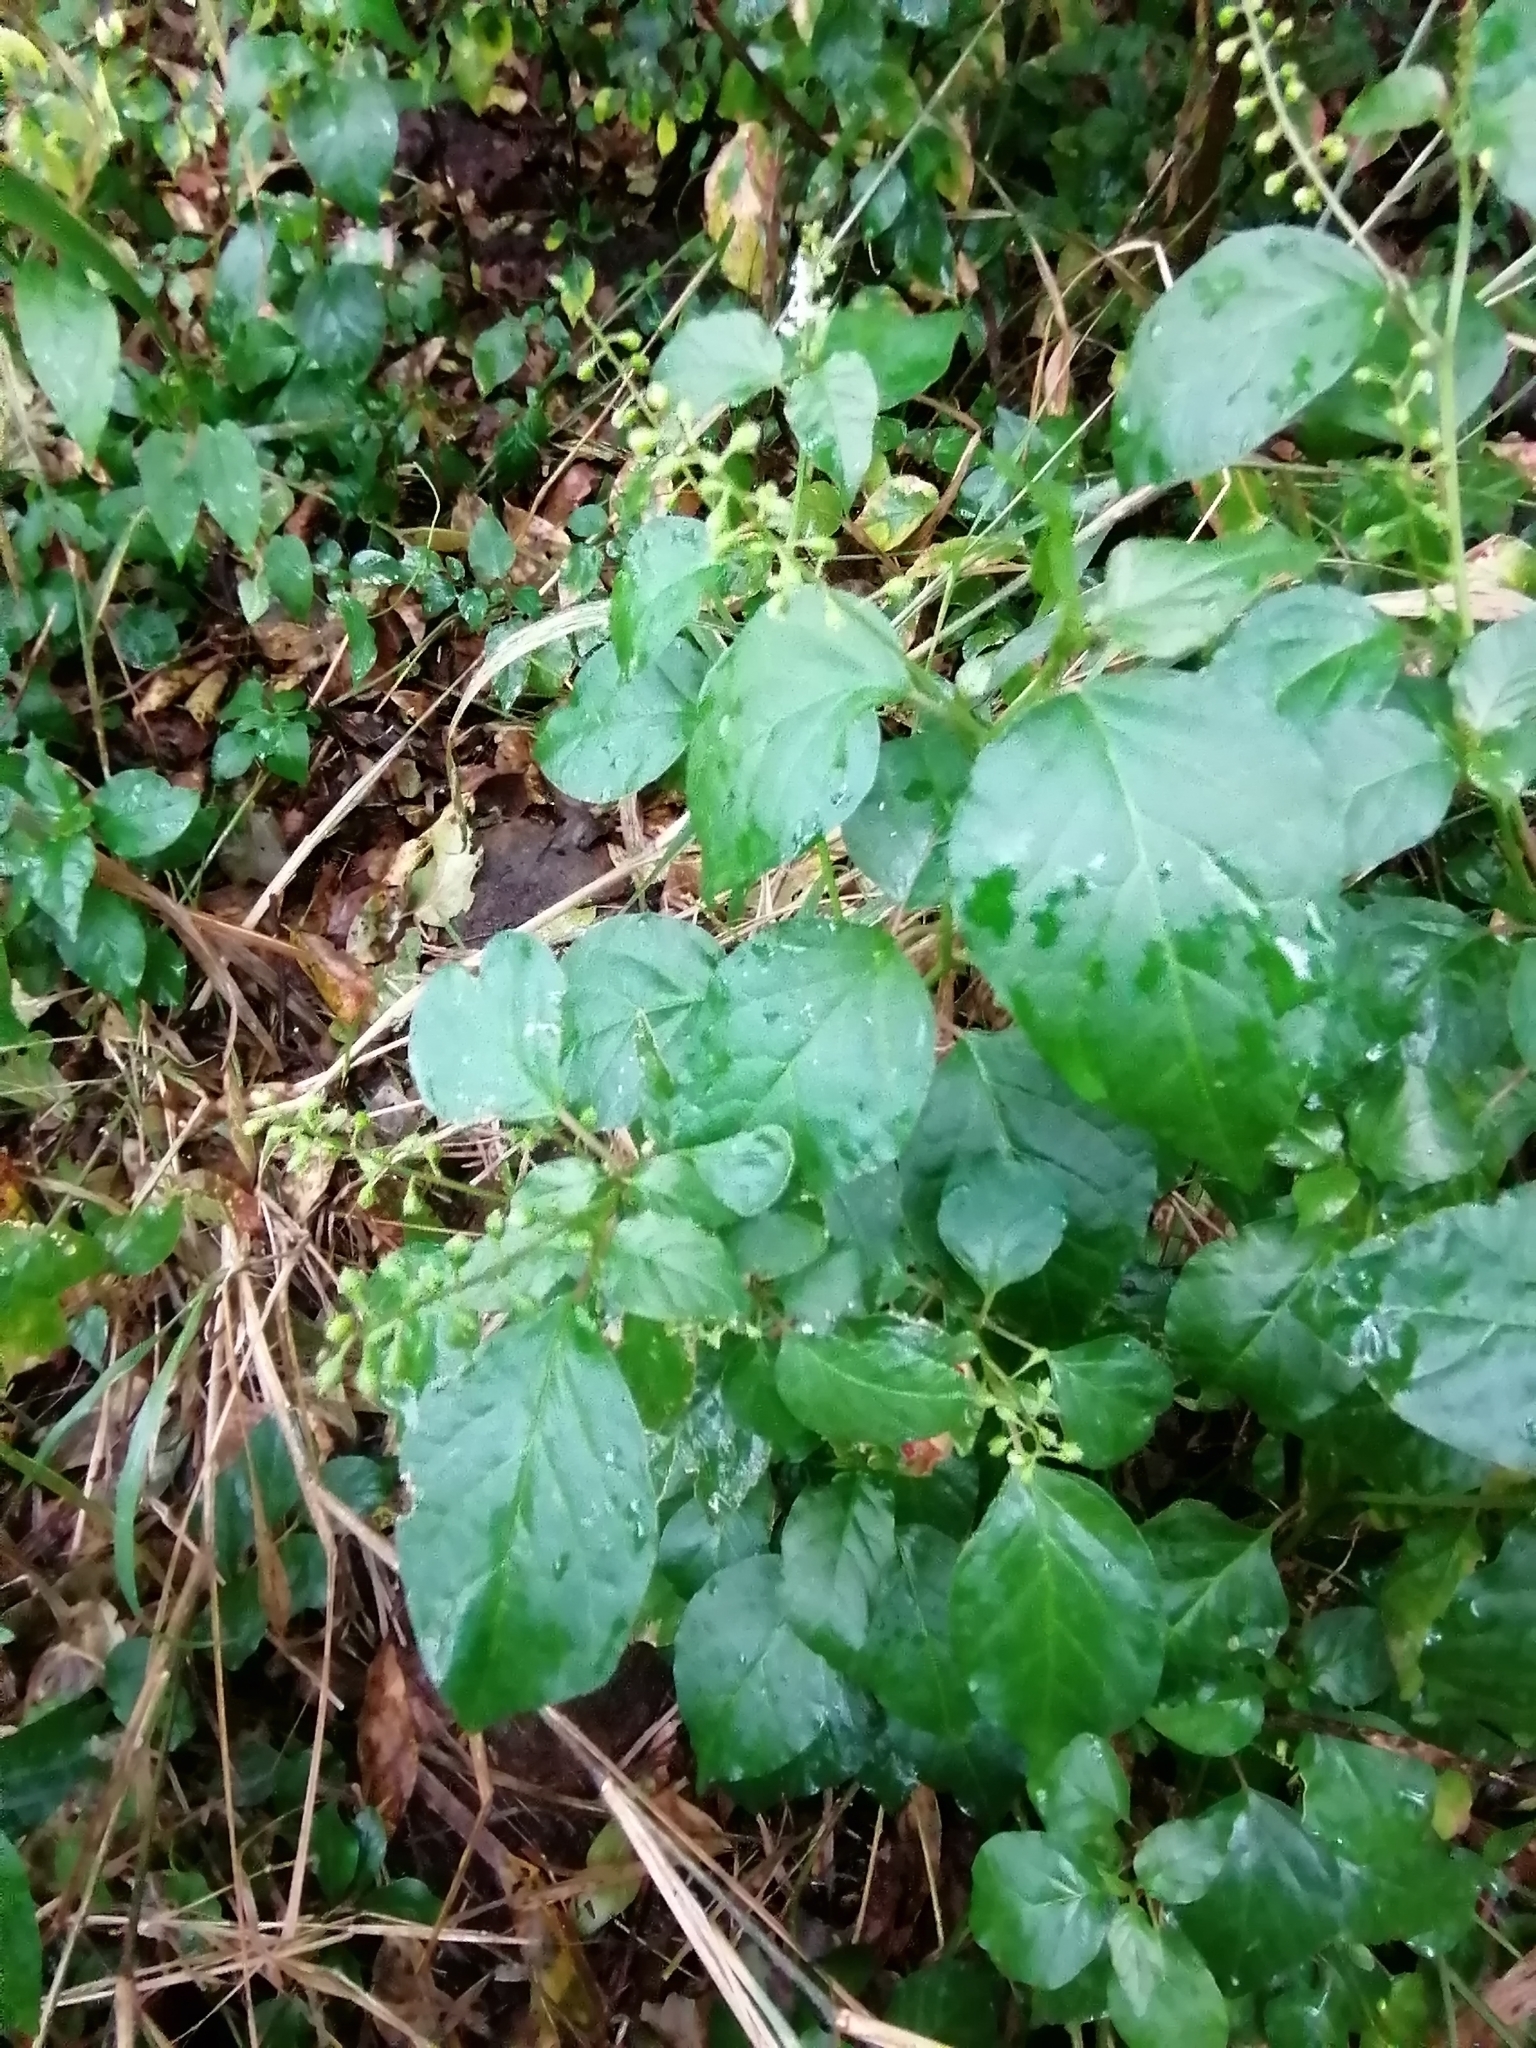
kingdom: Plantae
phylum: Tracheophyta
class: Magnoliopsida
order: Caryophyllales
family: Phytolaccaceae
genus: Rivina
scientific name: Rivina humilis
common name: Rougeplant
